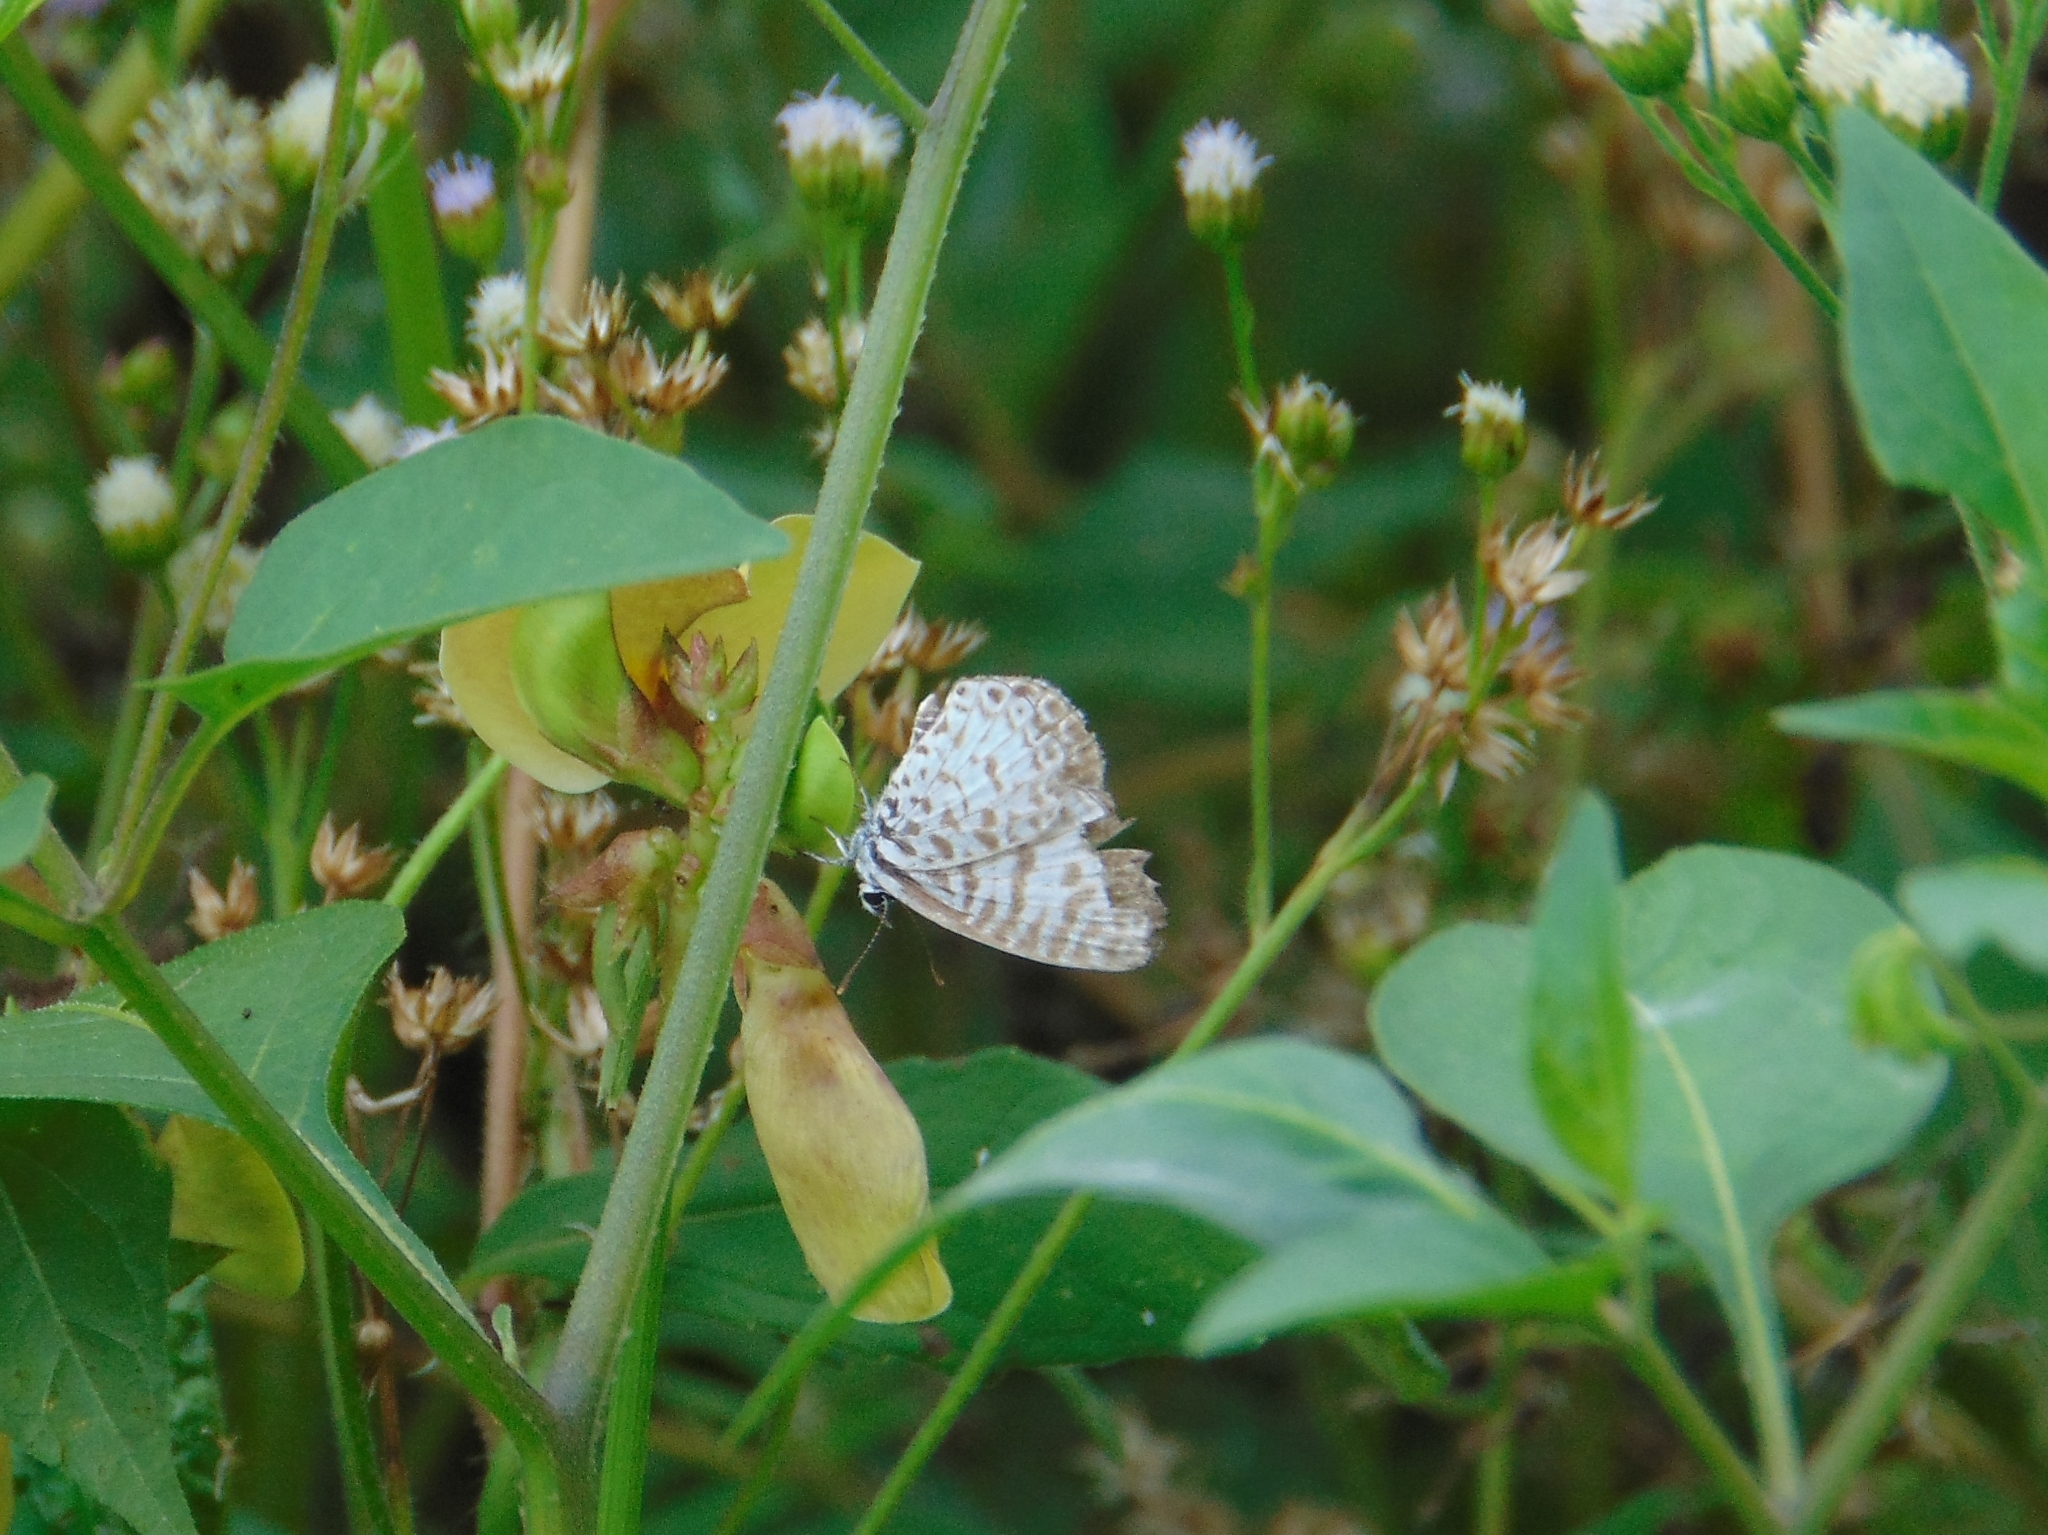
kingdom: Animalia
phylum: Arthropoda
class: Insecta
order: Lepidoptera
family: Lycaenidae
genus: Leptotes
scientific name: Leptotes cassius
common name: Cassius blue
